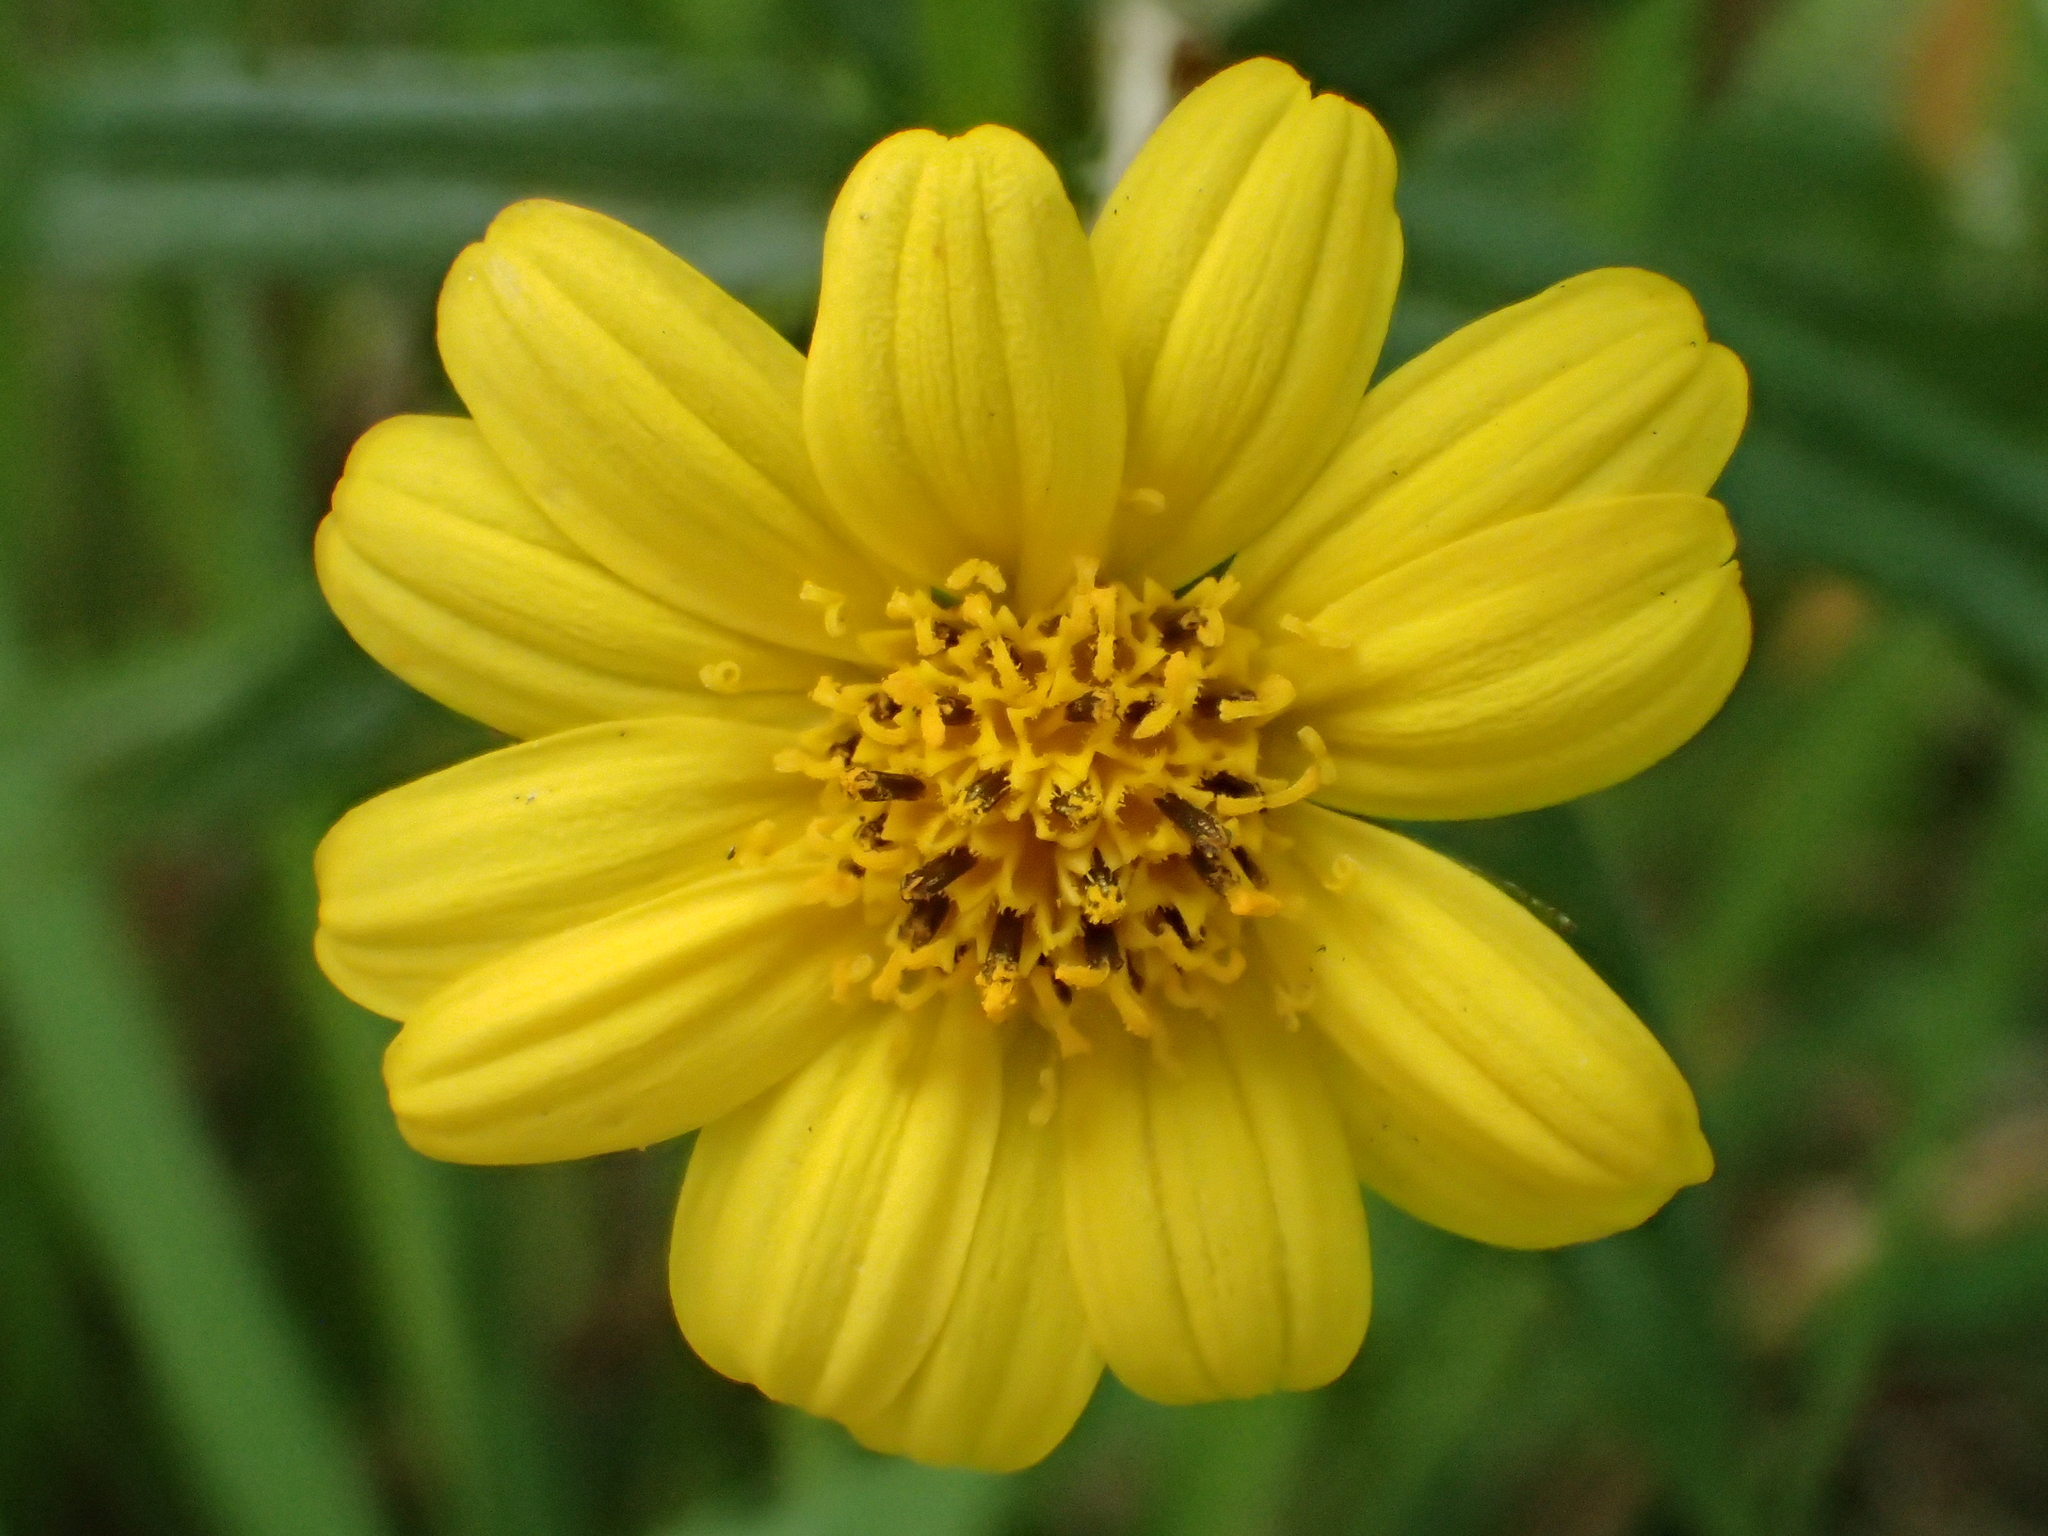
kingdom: Plantae
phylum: Tracheophyta
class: Magnoliopsida
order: Asterales
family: Asteraceae
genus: Sphagneticola
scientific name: Sphagneticola calendulacea
